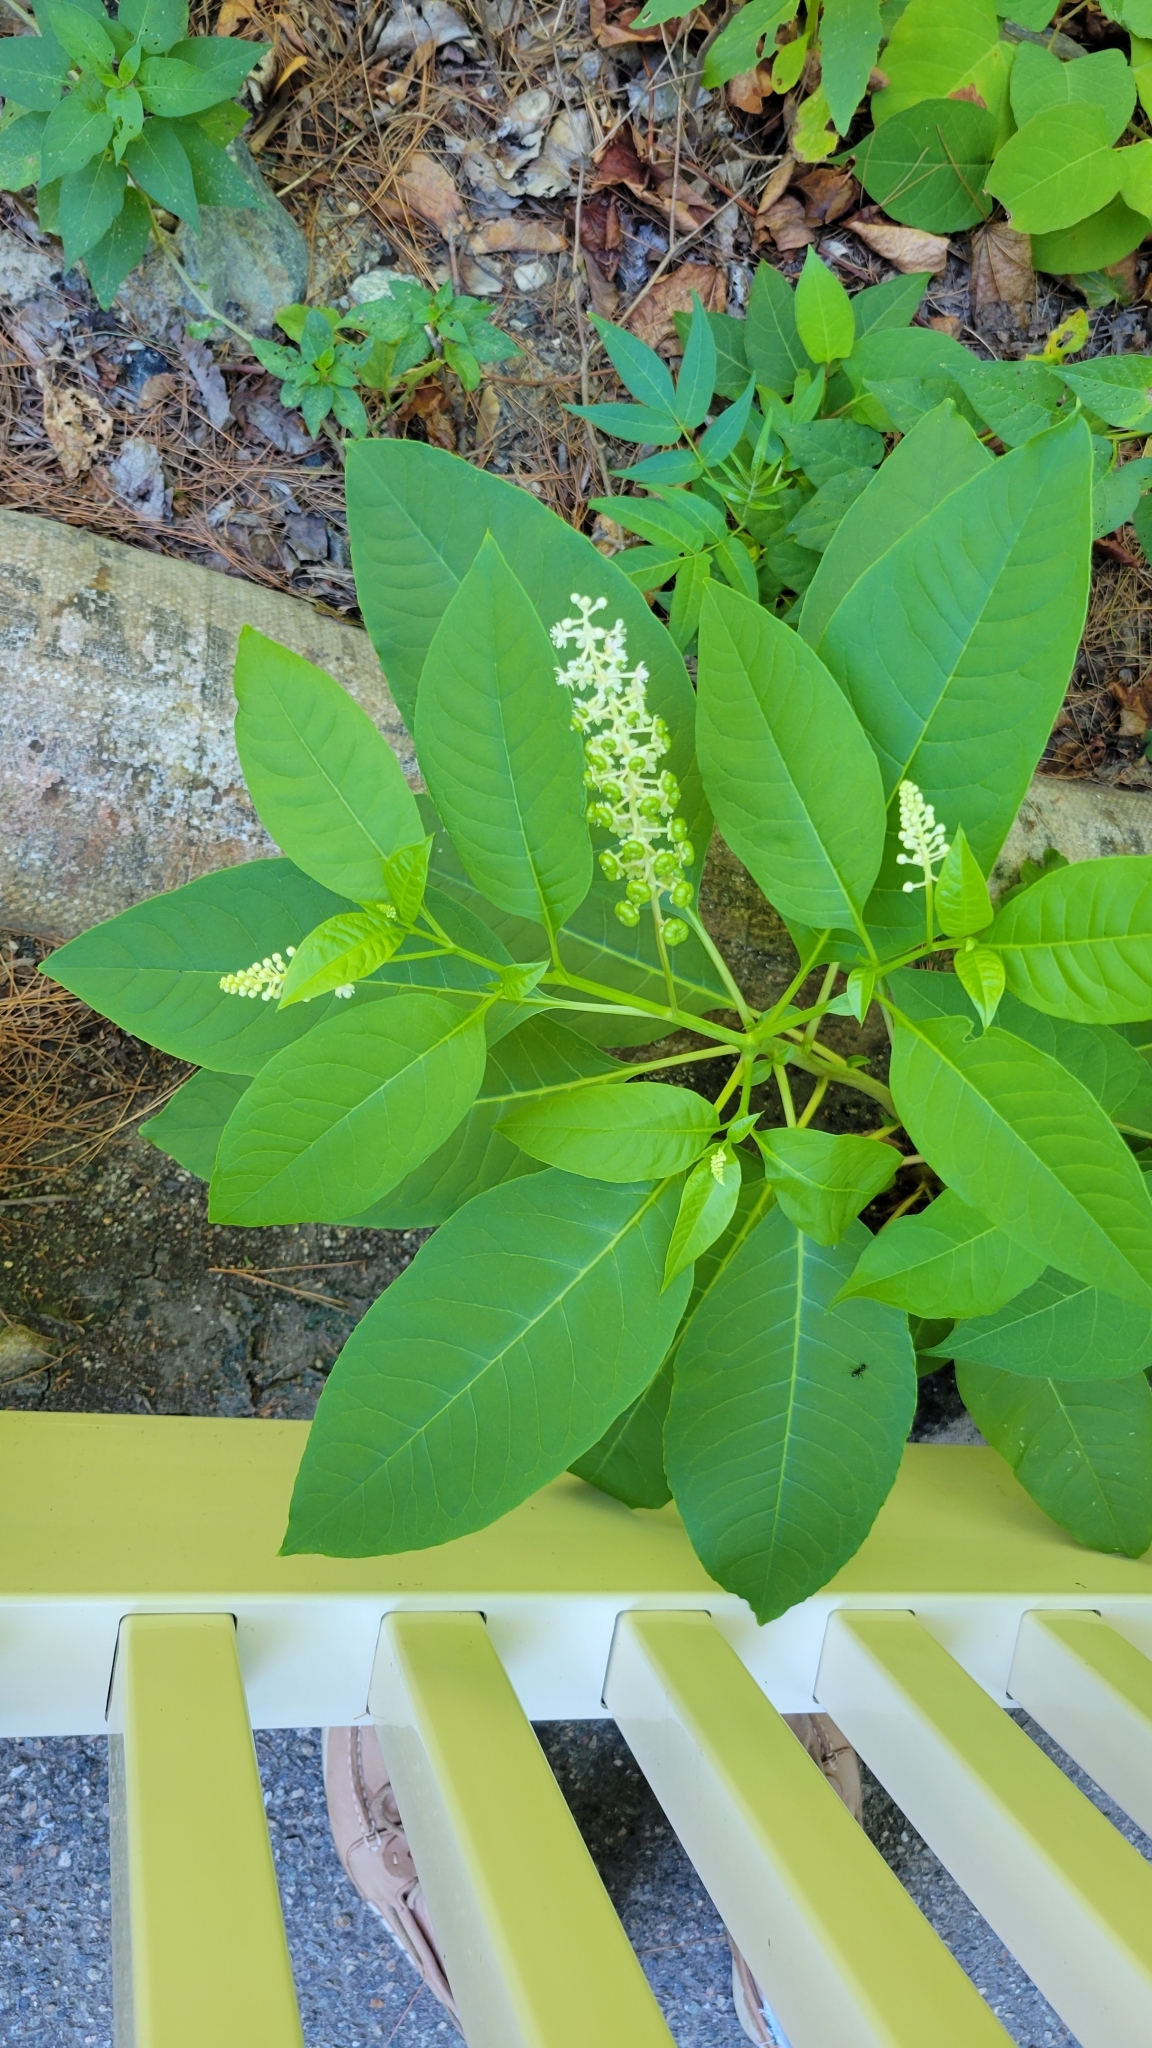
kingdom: Plantae
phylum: Tracheophyta
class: Magnoliopsida
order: Caryophyllales
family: Phytolaccaceae
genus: Phytolacca
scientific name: Phytolacca americana
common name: American pokeweed
